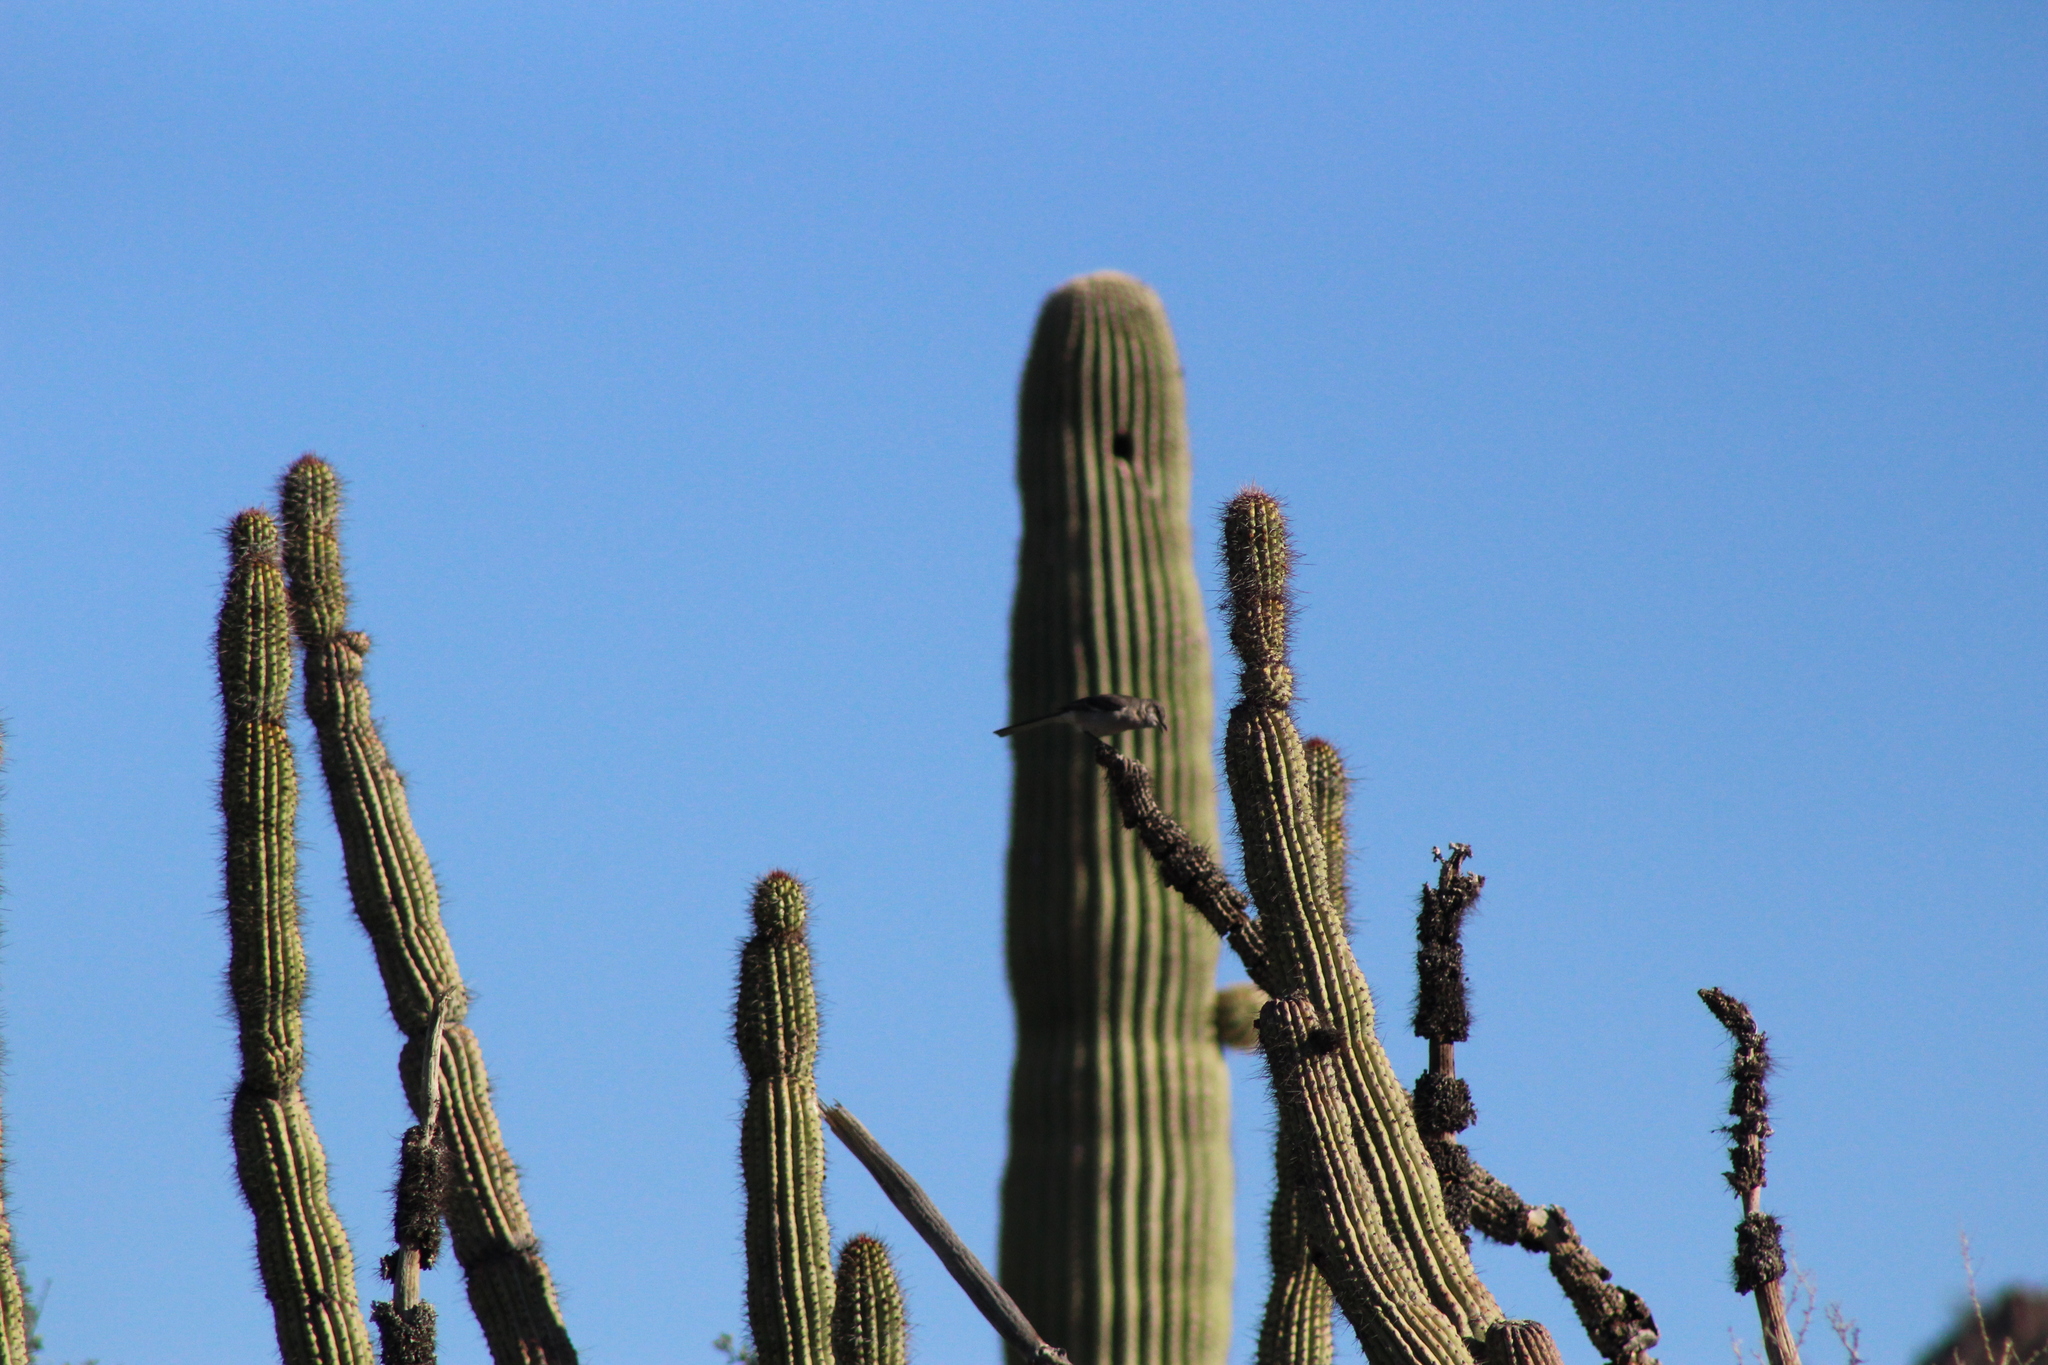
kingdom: Animalia
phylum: Chordata
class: Aves
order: Passeriformes
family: Mimidae
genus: Mimus
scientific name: Mimus polyglottos
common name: Northern mockingbird
